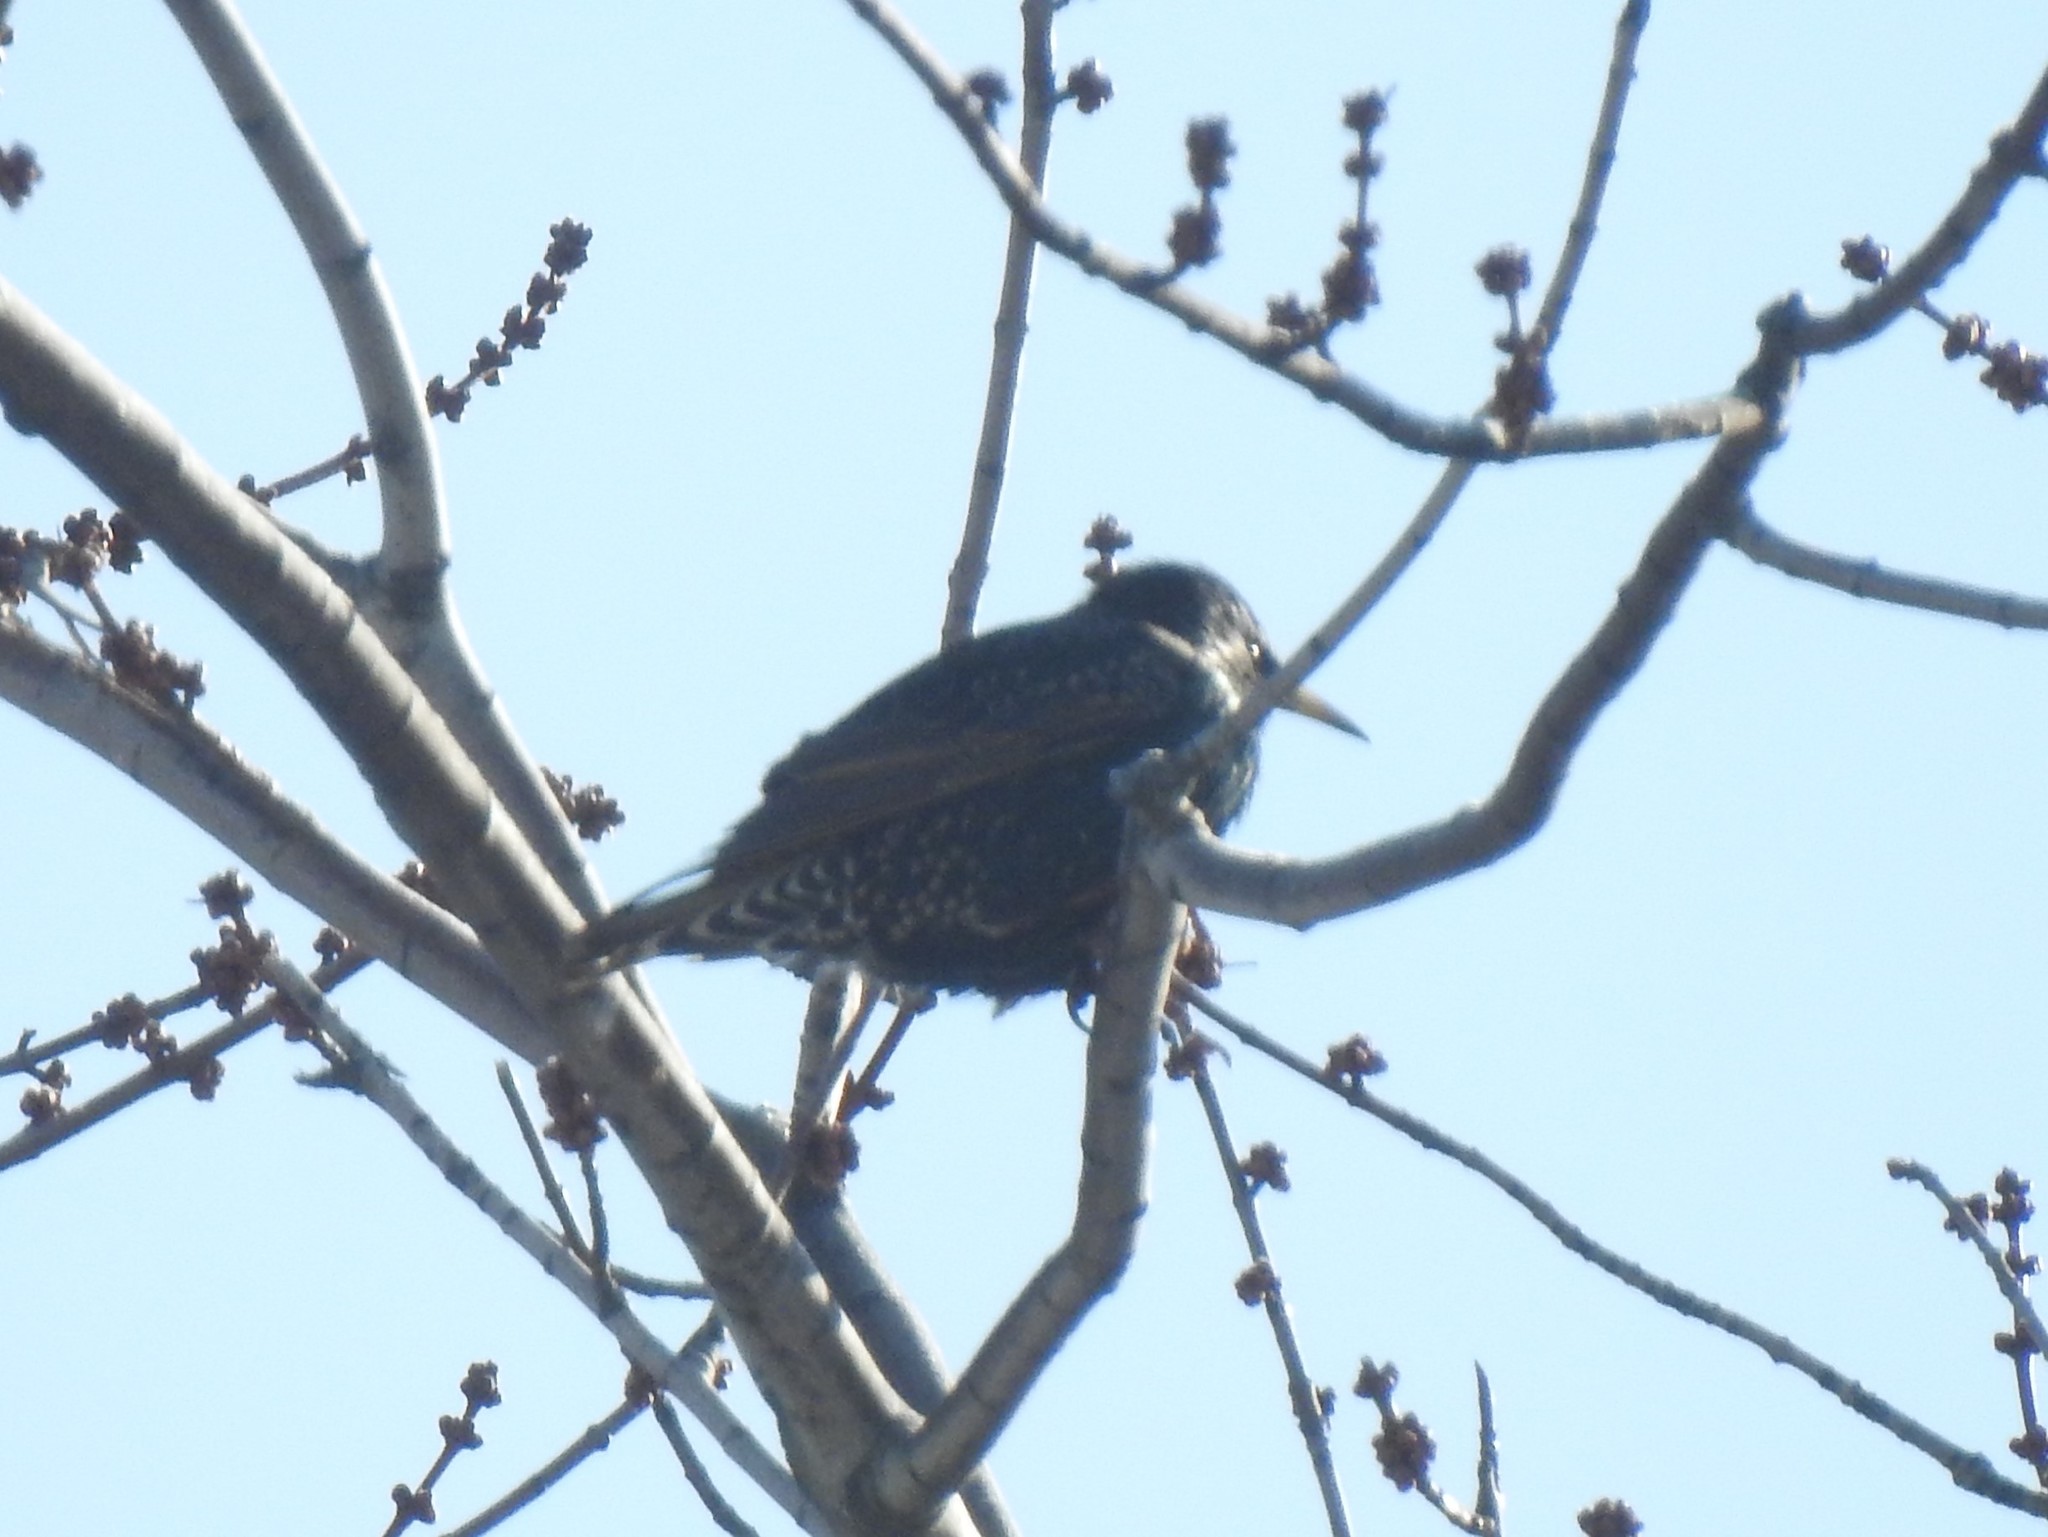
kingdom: Animalia
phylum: Chordata
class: Aves
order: Passeriformes
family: Sturnidae
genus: Sturnus
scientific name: Sturnus vulgaris
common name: Common starling
